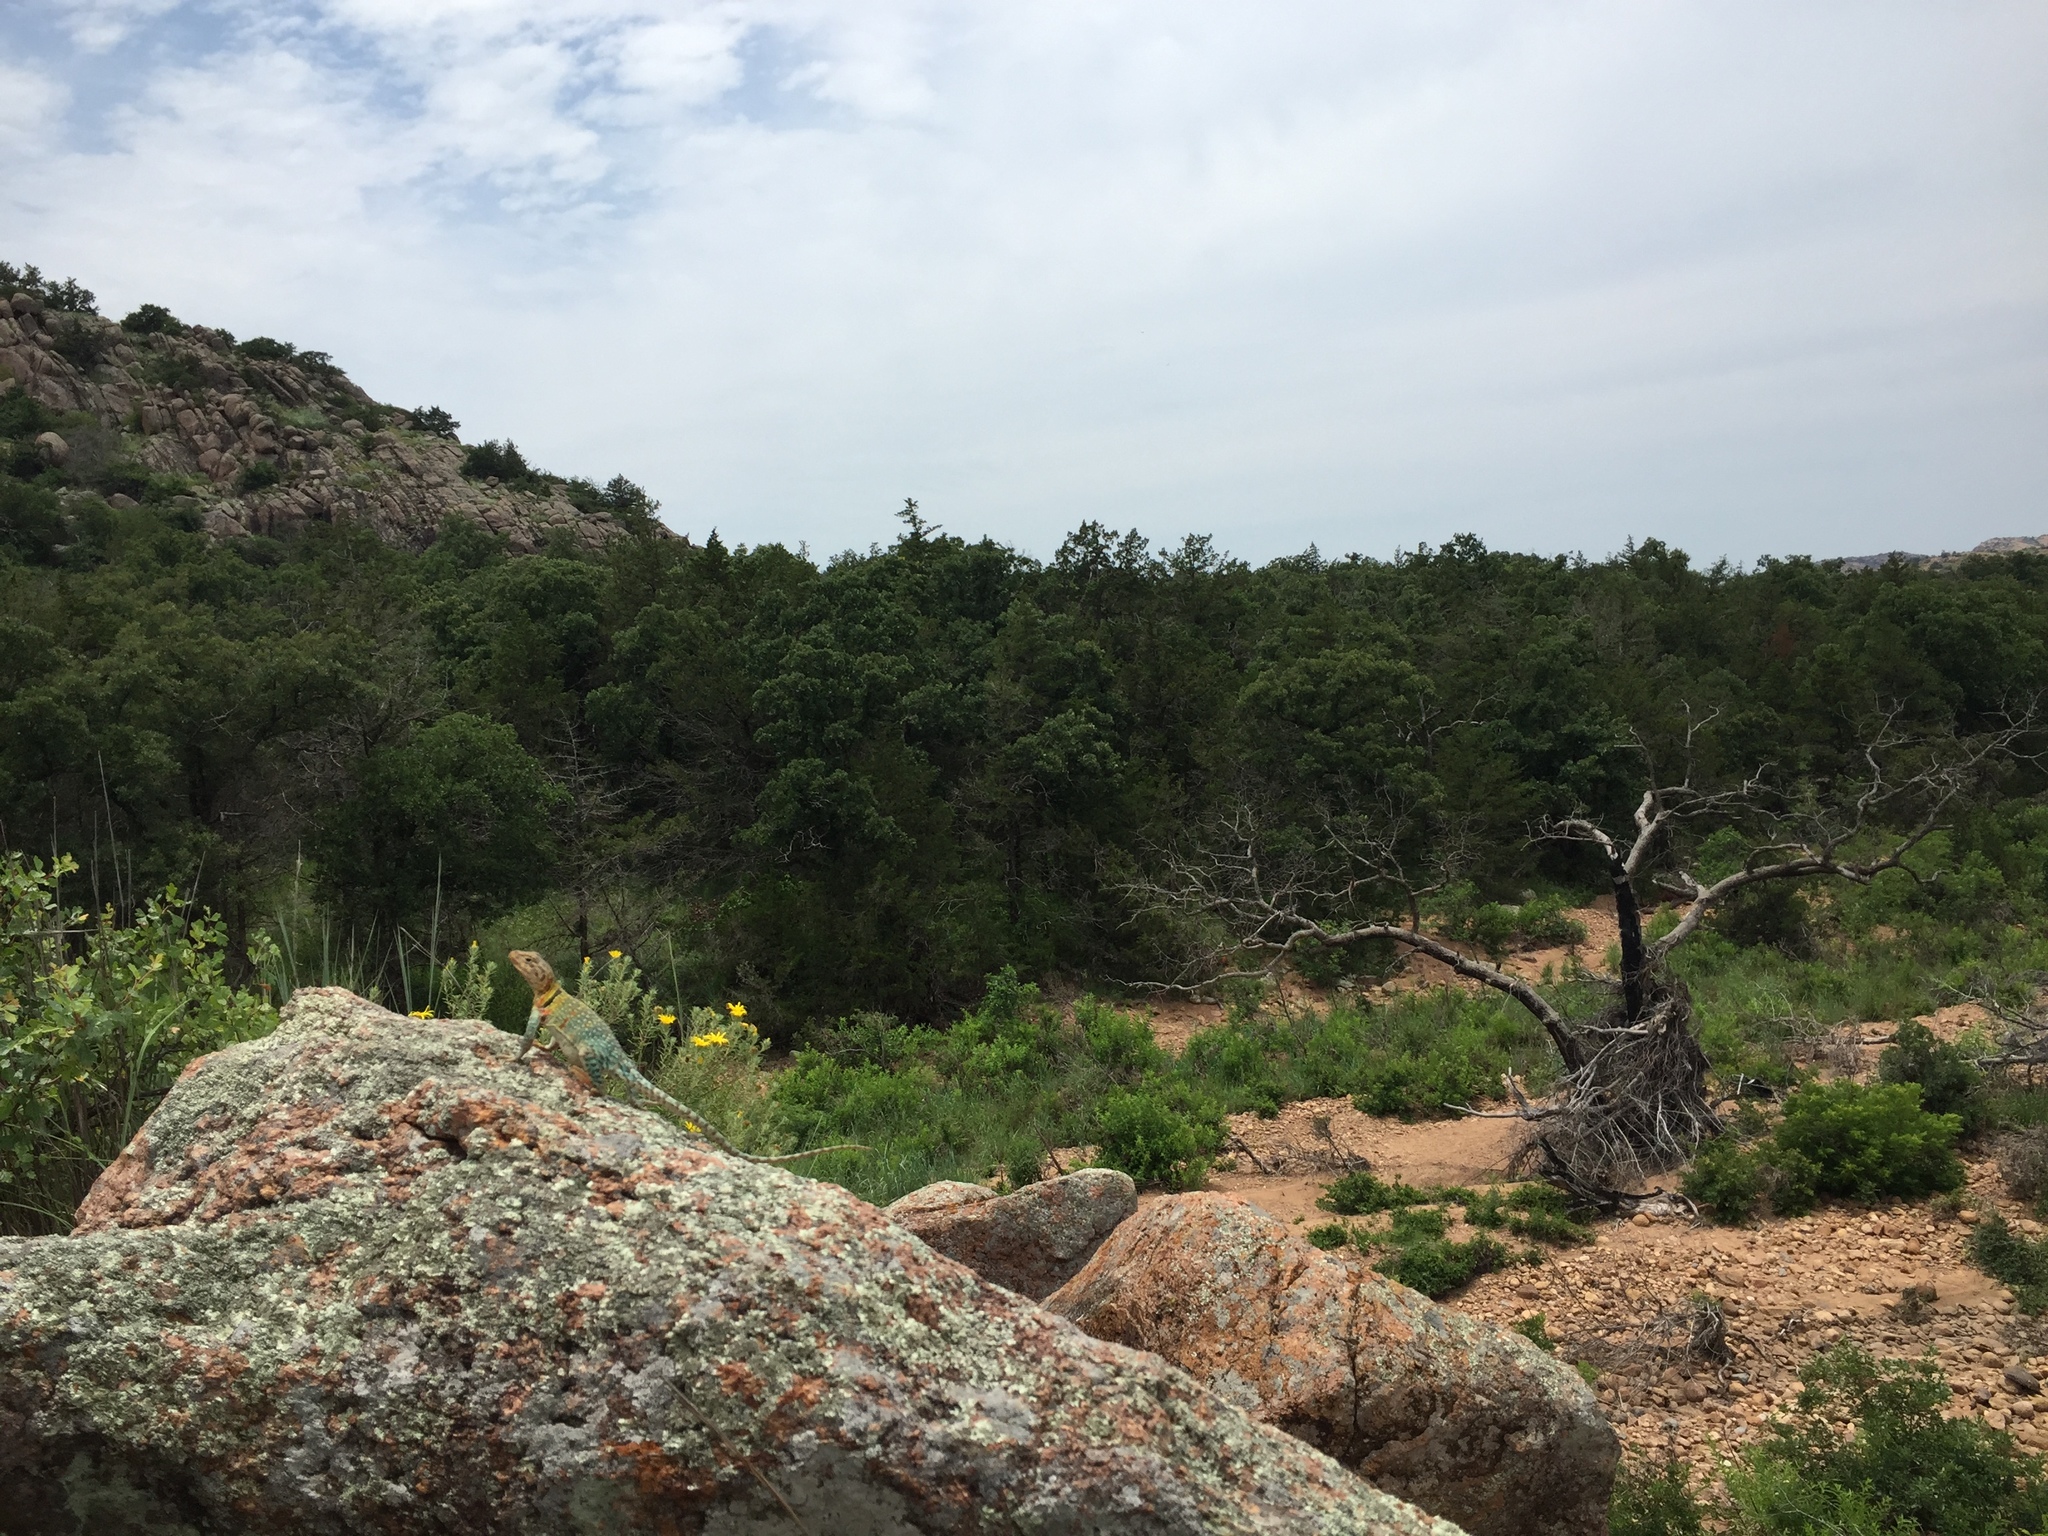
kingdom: Animalia
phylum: Chordata
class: Squamata
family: Crotaphytidae
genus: Crotaphytus
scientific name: Crotaphytus collaris
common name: Collared lizard
